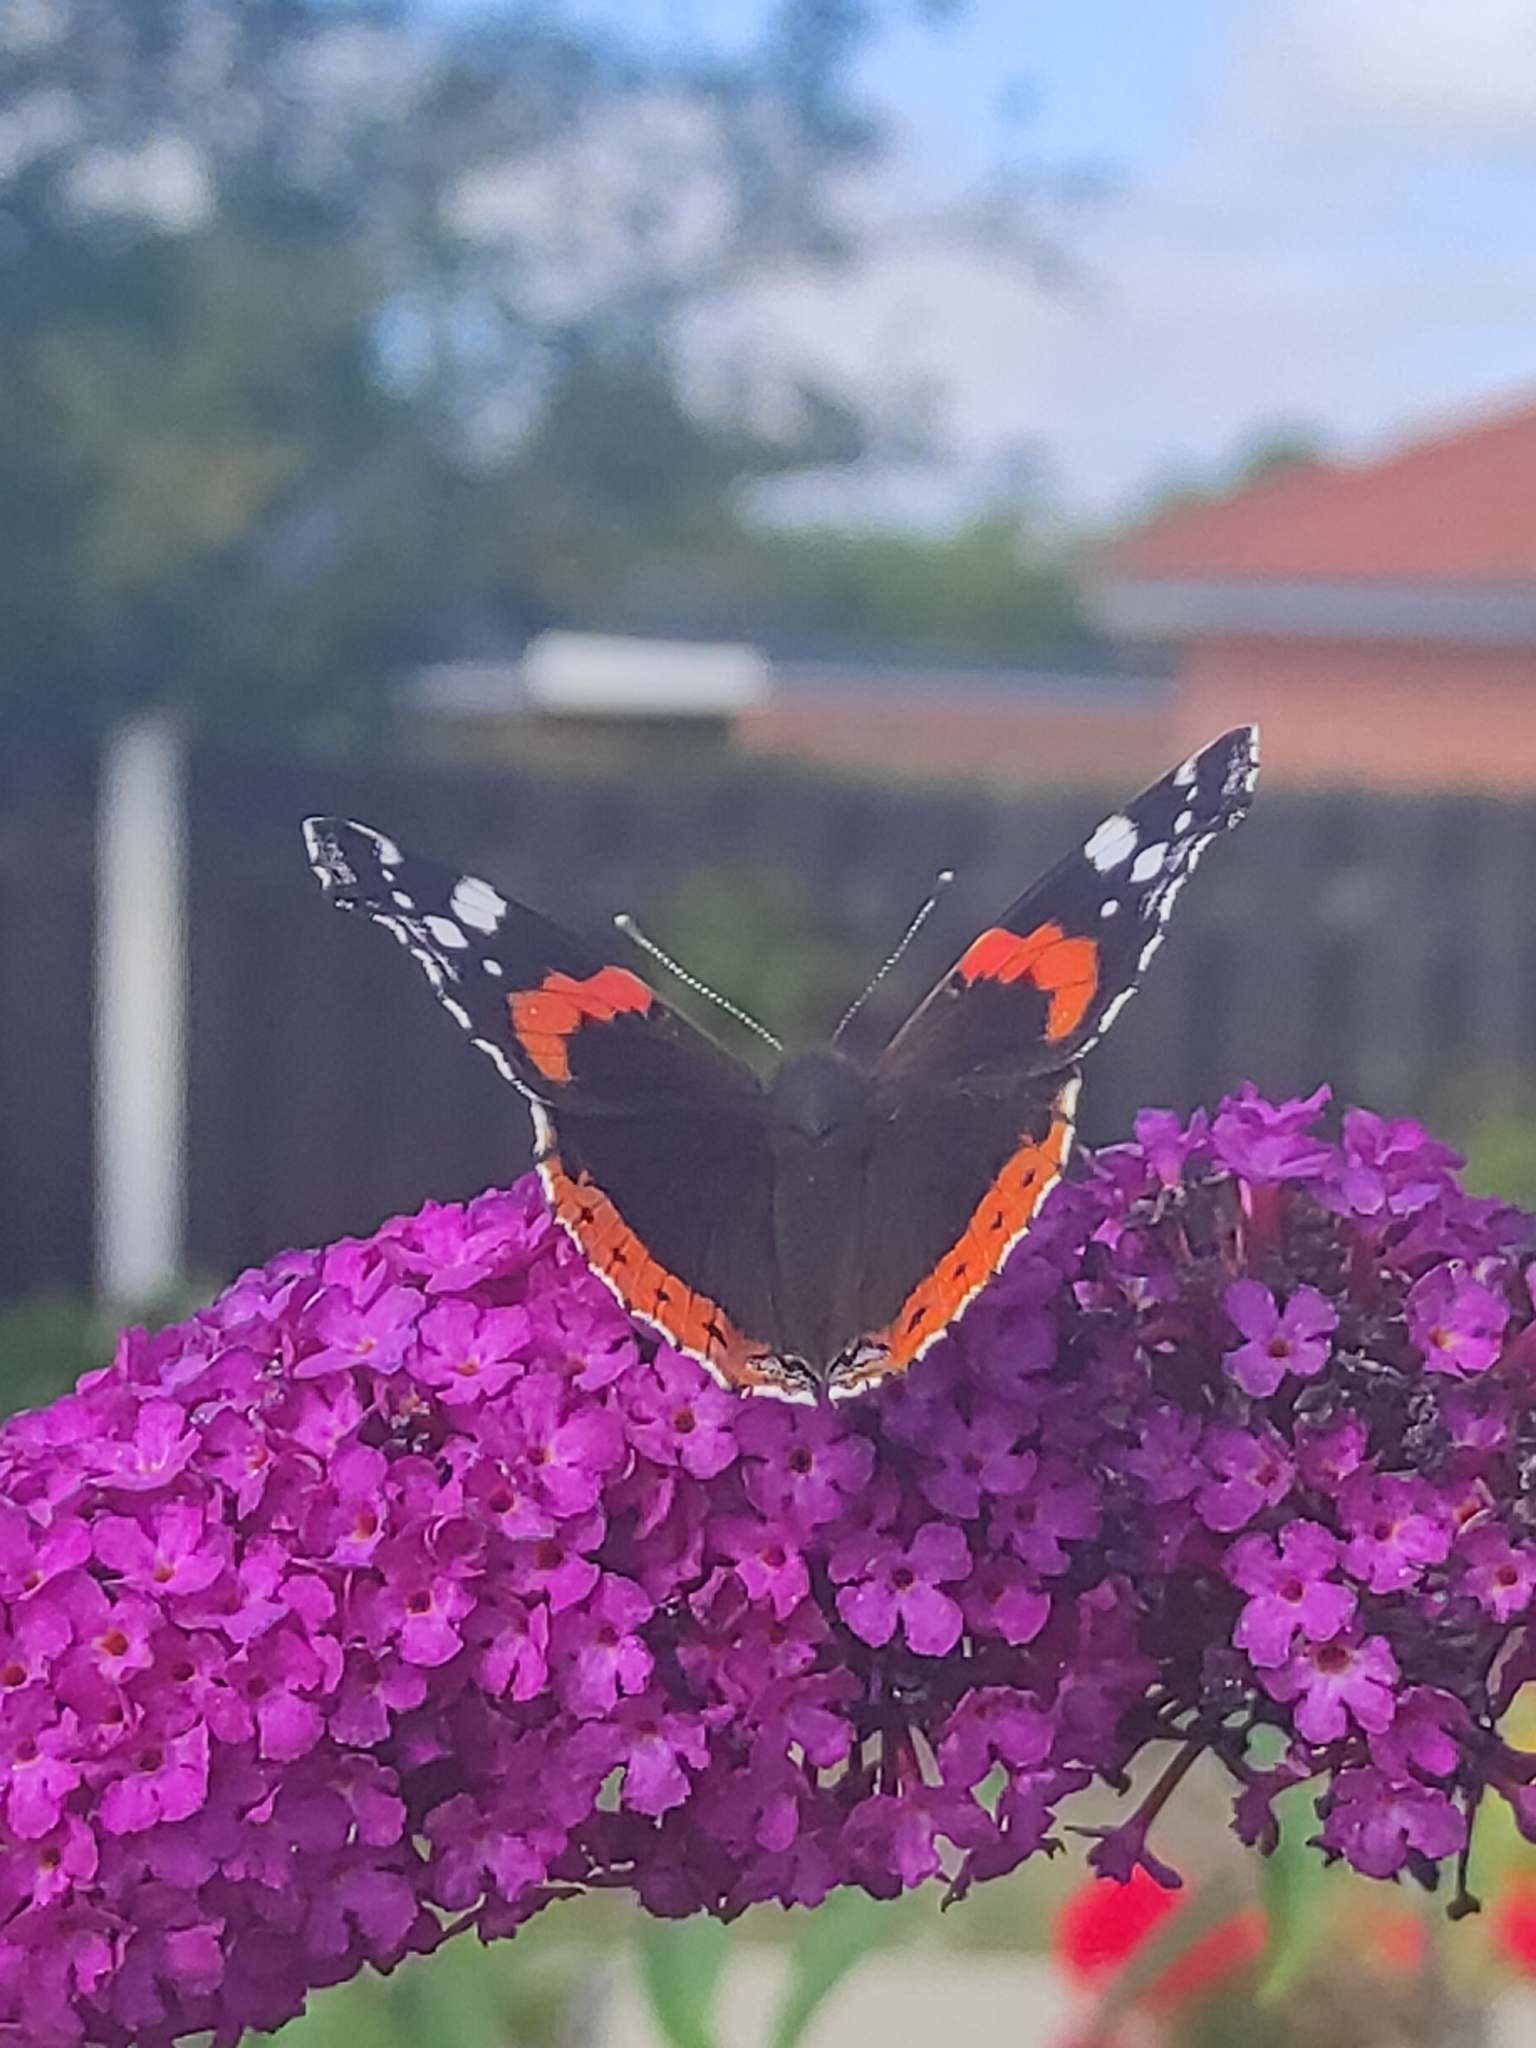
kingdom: Animalia
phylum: Arthropoda
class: Insecta
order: Lepidoptera
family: Nymphalidae
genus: Vanessa
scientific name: Vanessa atalanta
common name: Red admiral
